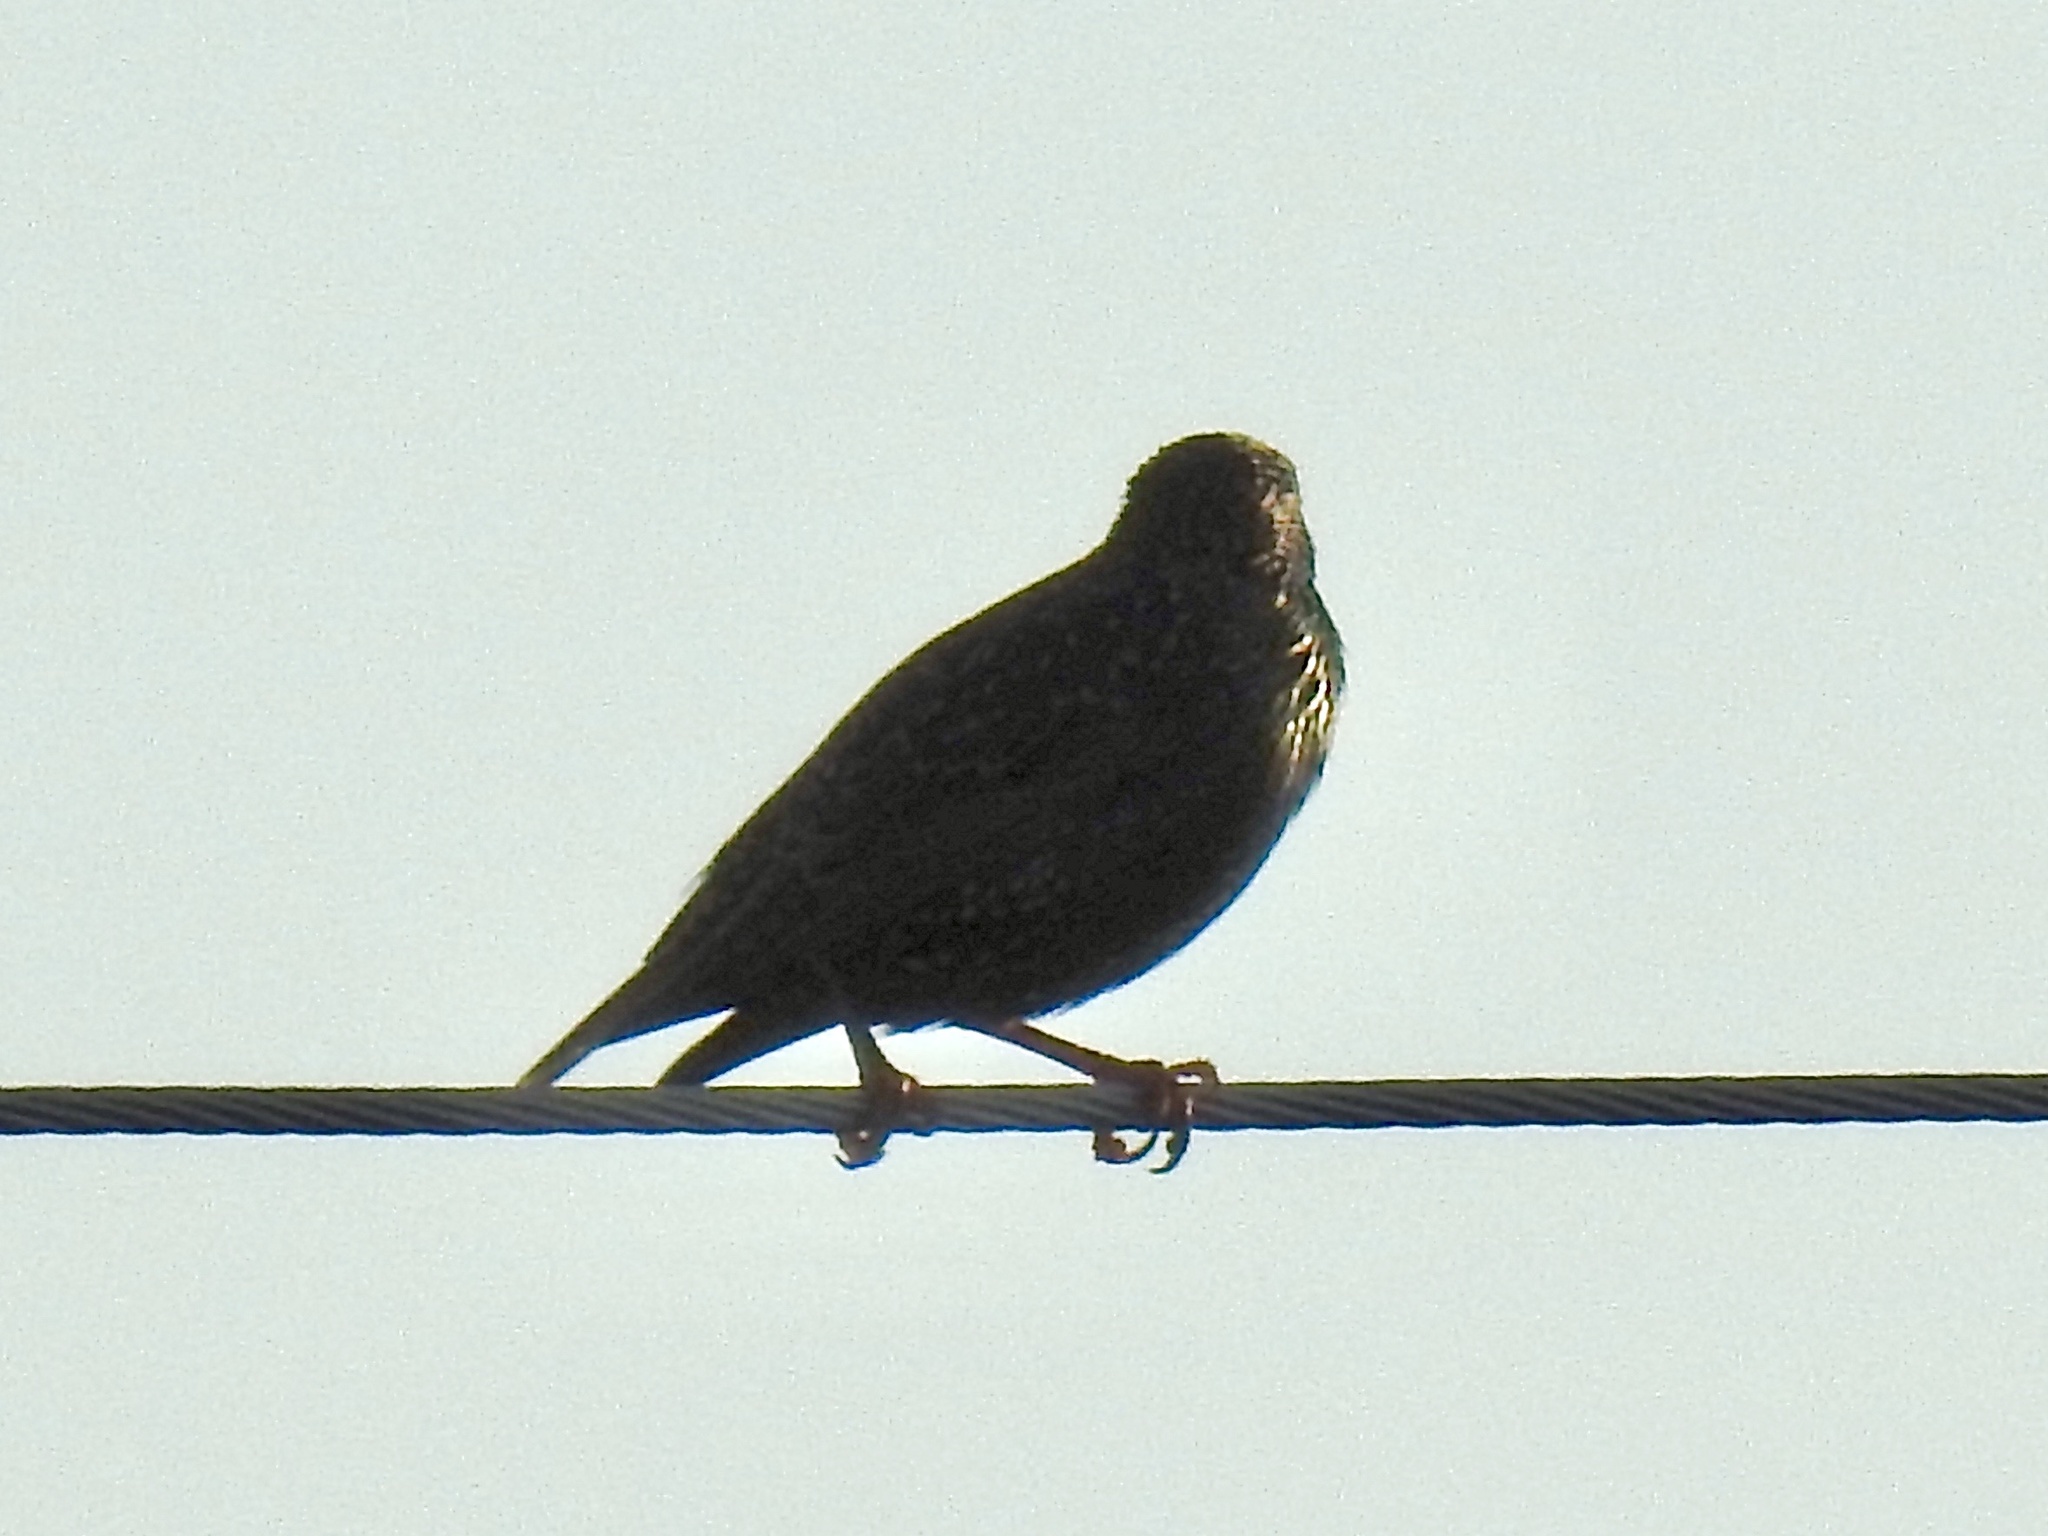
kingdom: Animalia
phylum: Chordata
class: Aves
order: Passeriformes
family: Sturnidae
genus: Sturnus
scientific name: Sturnus vulgaris
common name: Common starling
